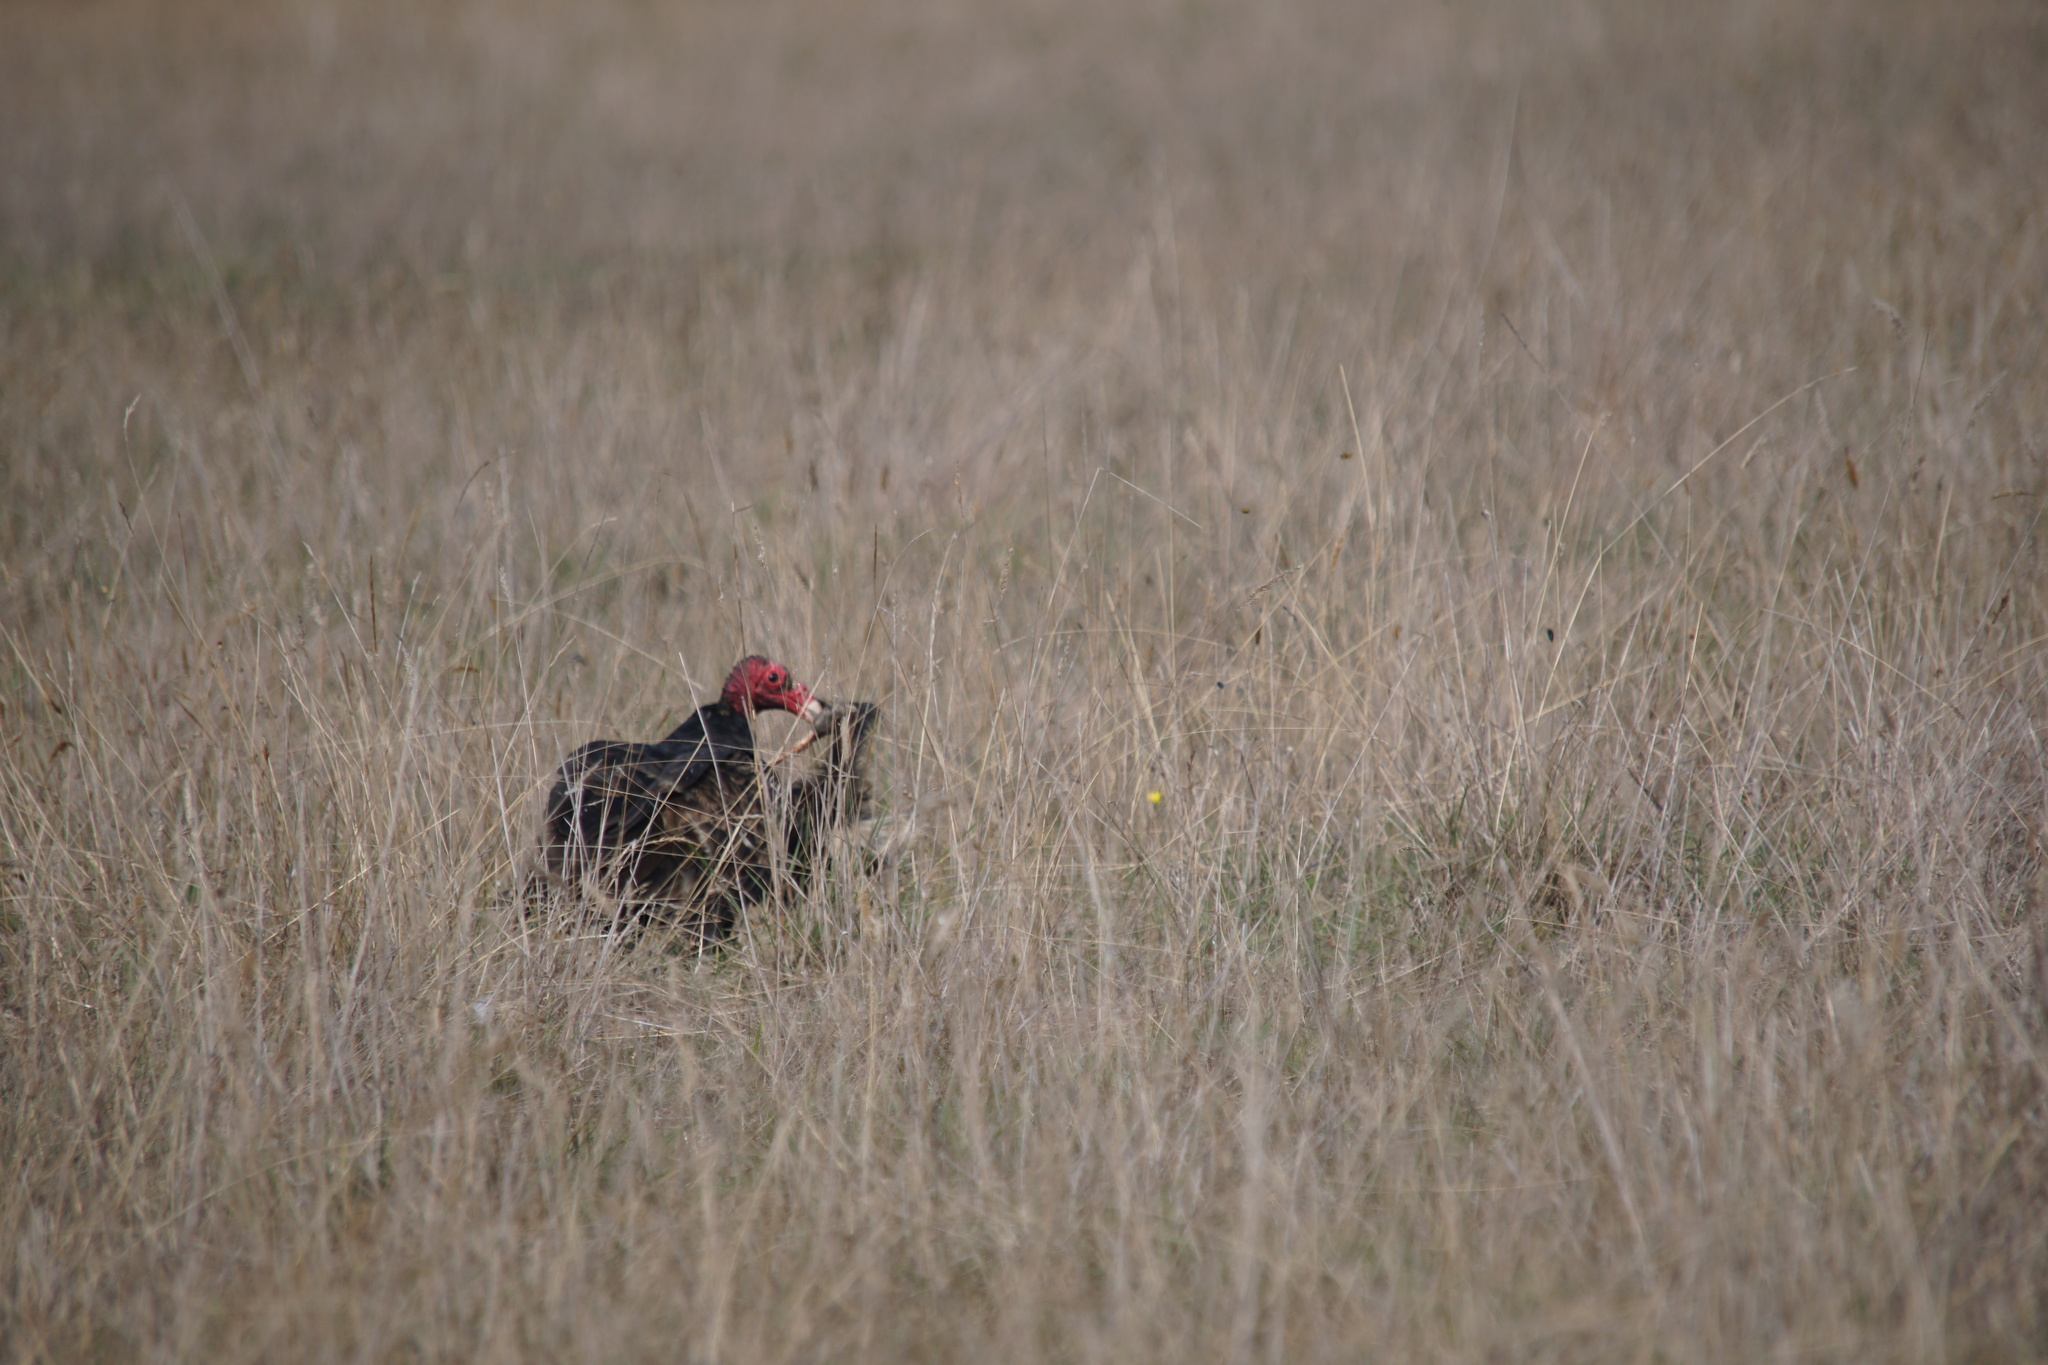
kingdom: Animalia
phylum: Chordata
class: Aves
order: Accipitriformes
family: Cathartidae
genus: Cathartes
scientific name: Cathartes aura
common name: Turkey vulture
